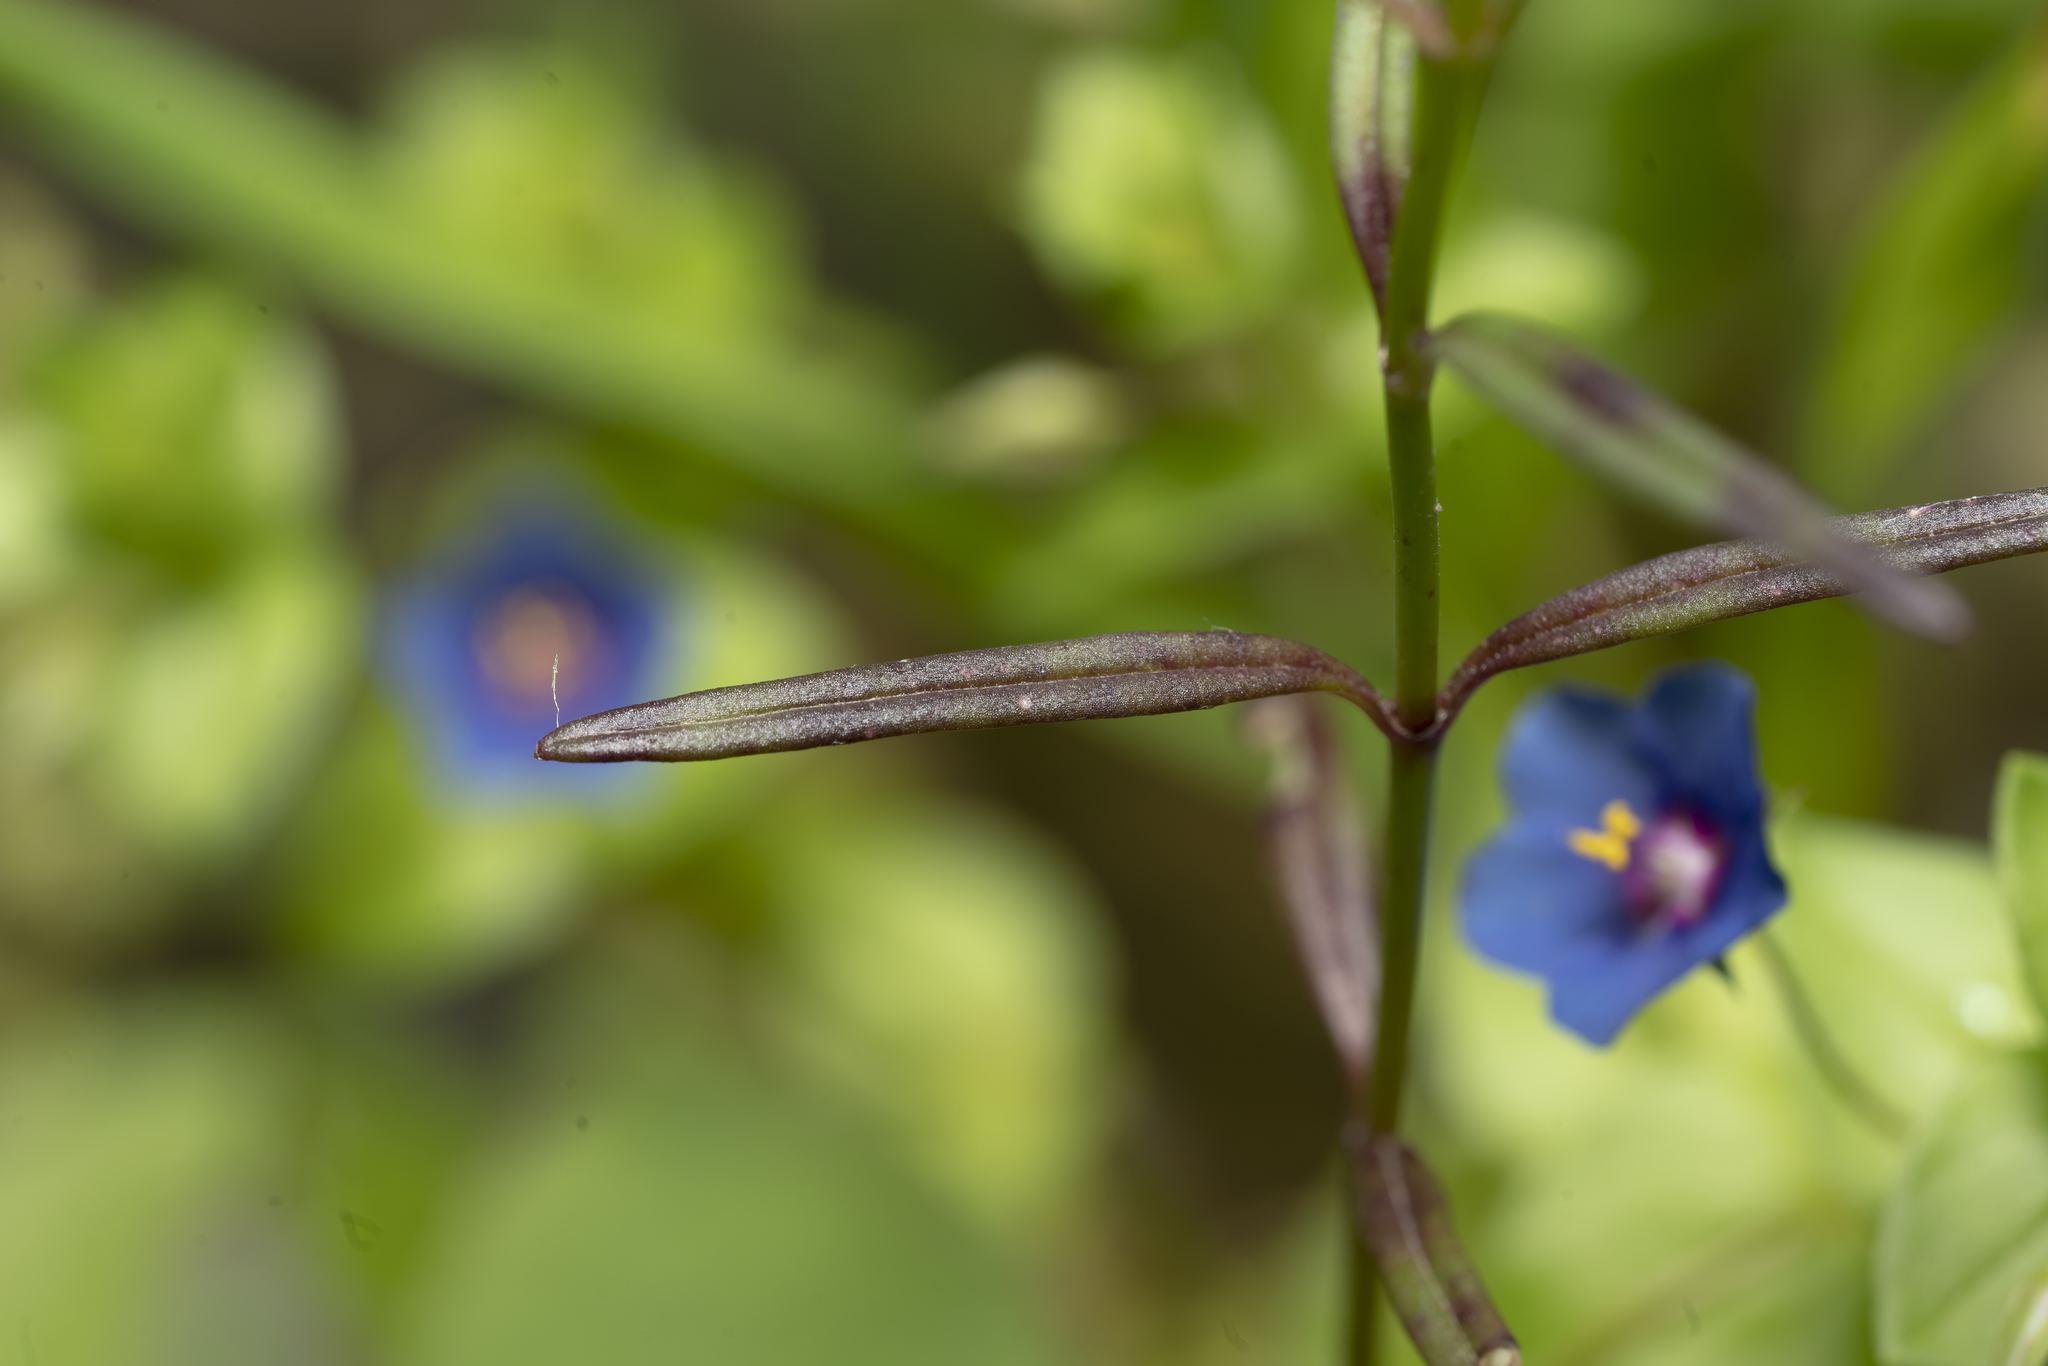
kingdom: Plantae
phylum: Tracheophyta
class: Magnoliopsida
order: Lamiales
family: Plantaginaceae
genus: Misopates
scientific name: Misopates orontium
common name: Weasel's-snout
